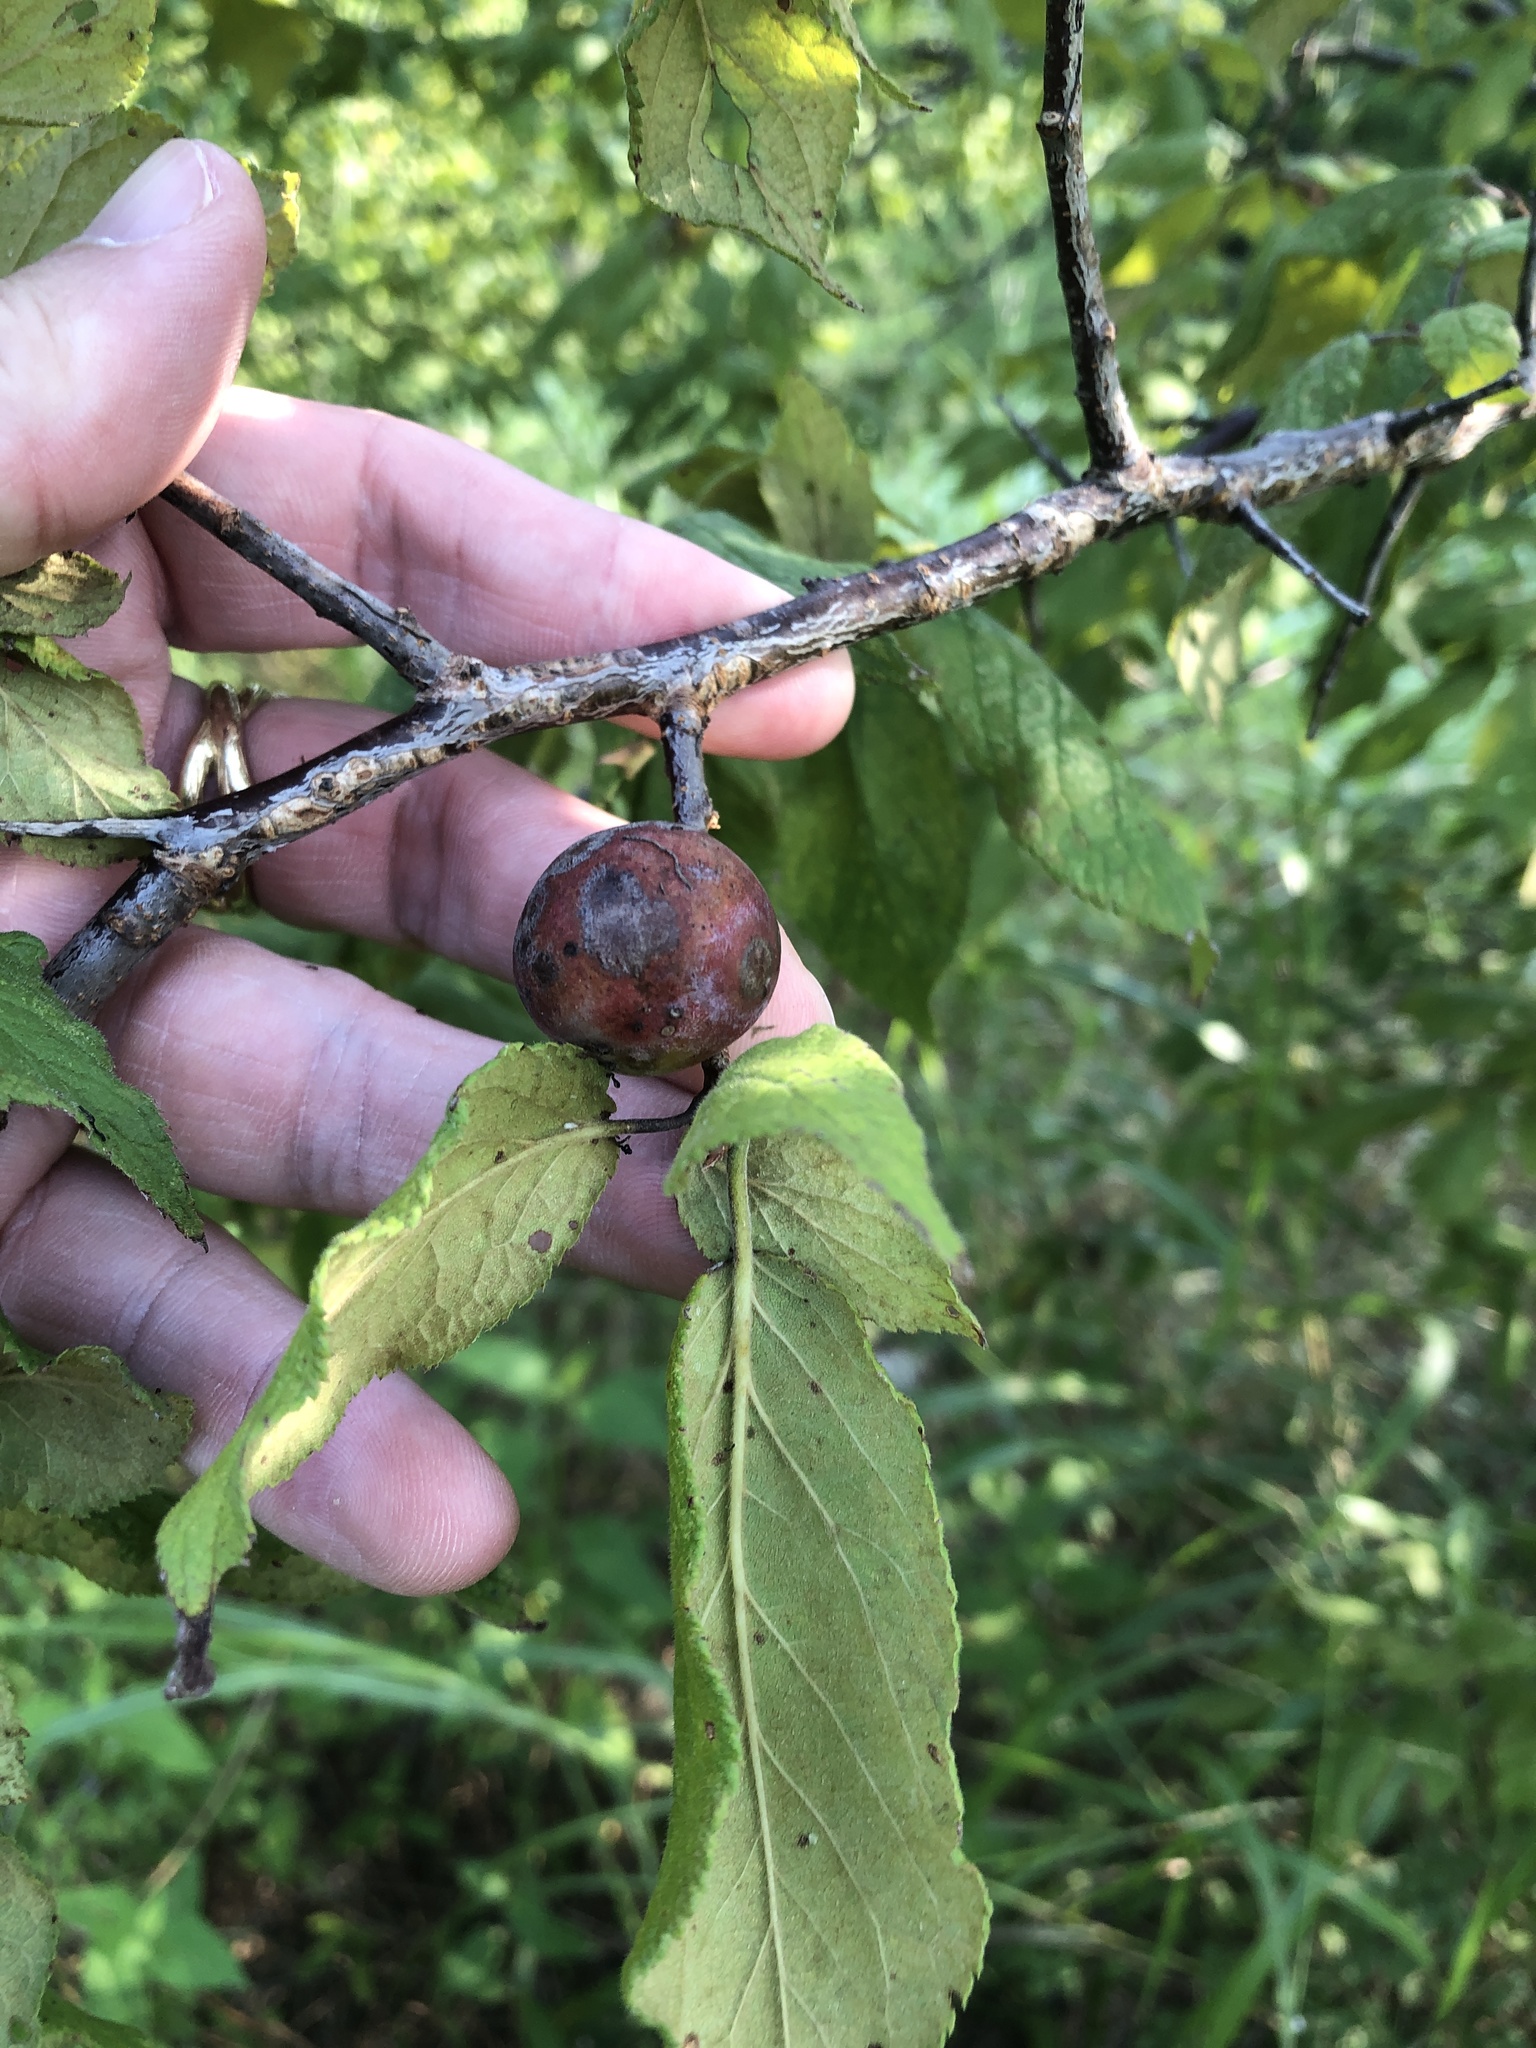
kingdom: Plantae
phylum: Tracheophyta
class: Magnoliopsida
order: Rosales
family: Rosaceae
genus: Prunus
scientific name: Prunus mexicana
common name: Mexican plum
